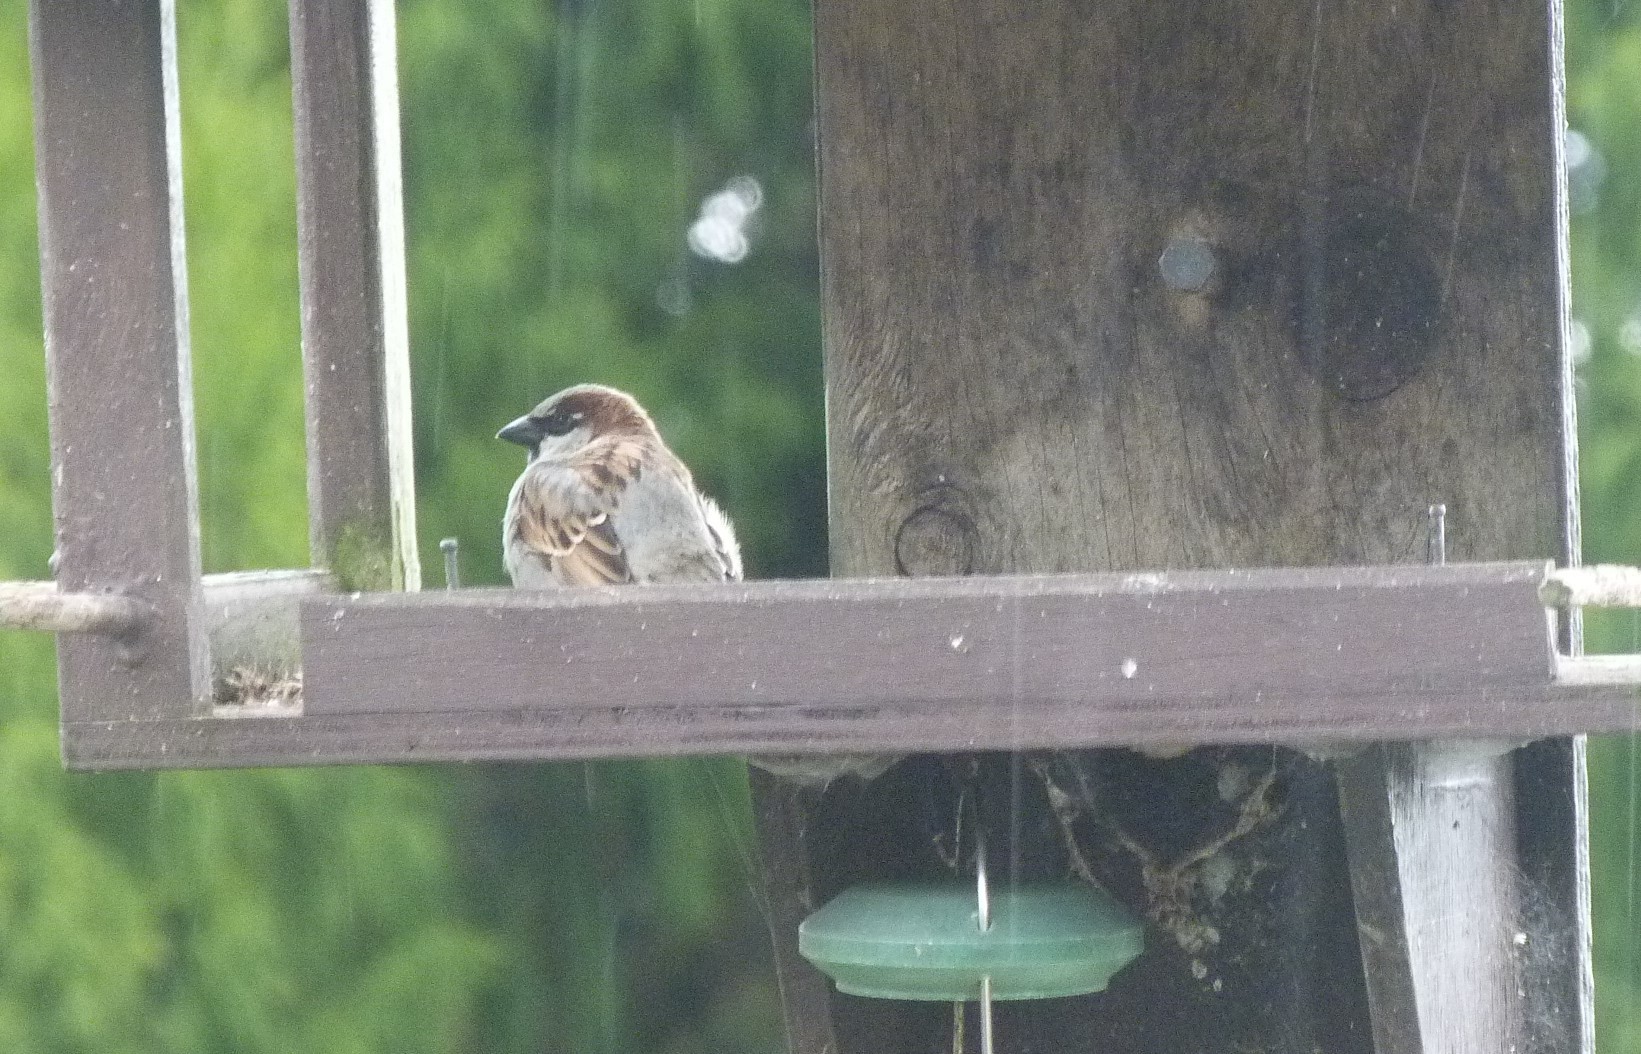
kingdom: Animalia
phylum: Chordata
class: Aves
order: Passeriformes
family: Passeridae
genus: Passer
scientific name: Passer domesticus
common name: House sparrow
